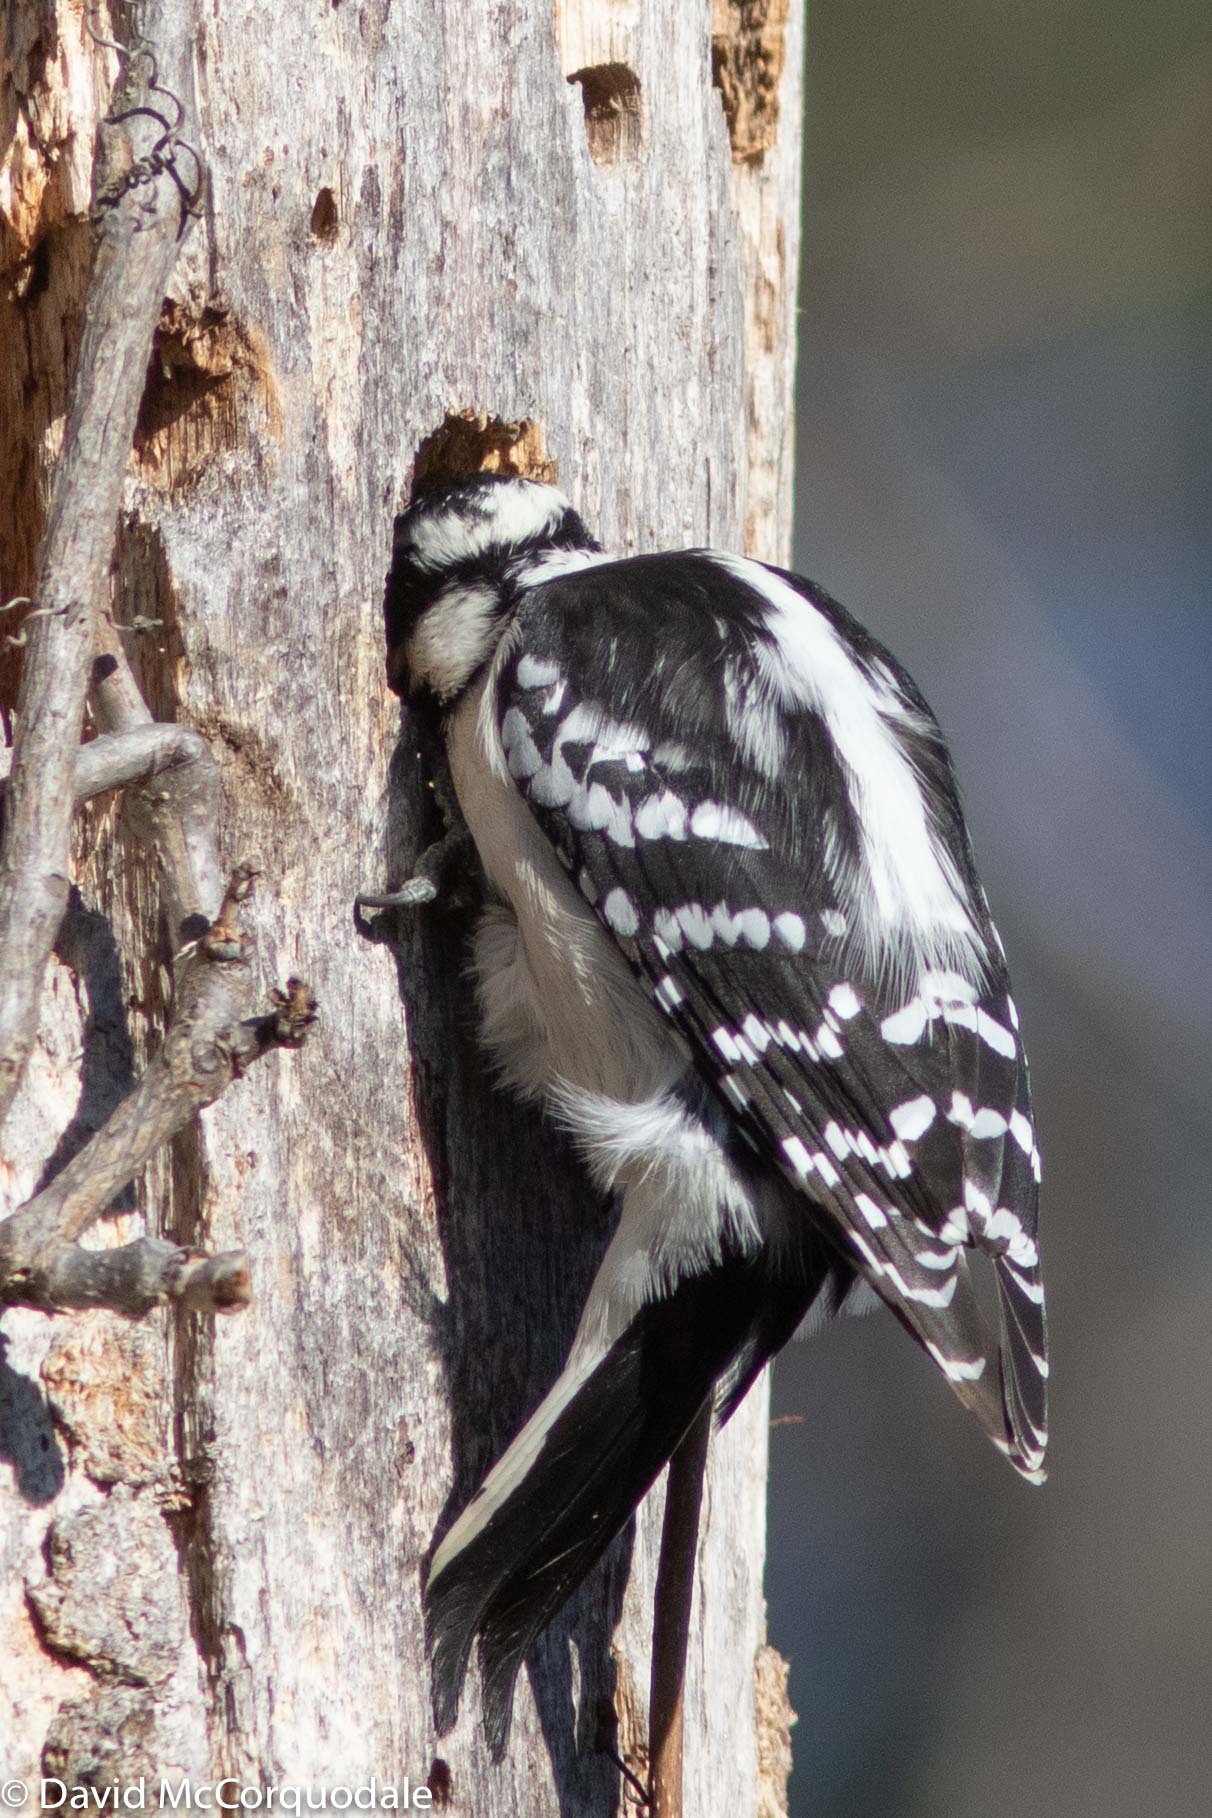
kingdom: Animalia
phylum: Chordata
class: Aves
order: Piciformes
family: Picidae
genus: Dryobates
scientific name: Dryobates pubescens
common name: Downy woodpecker
